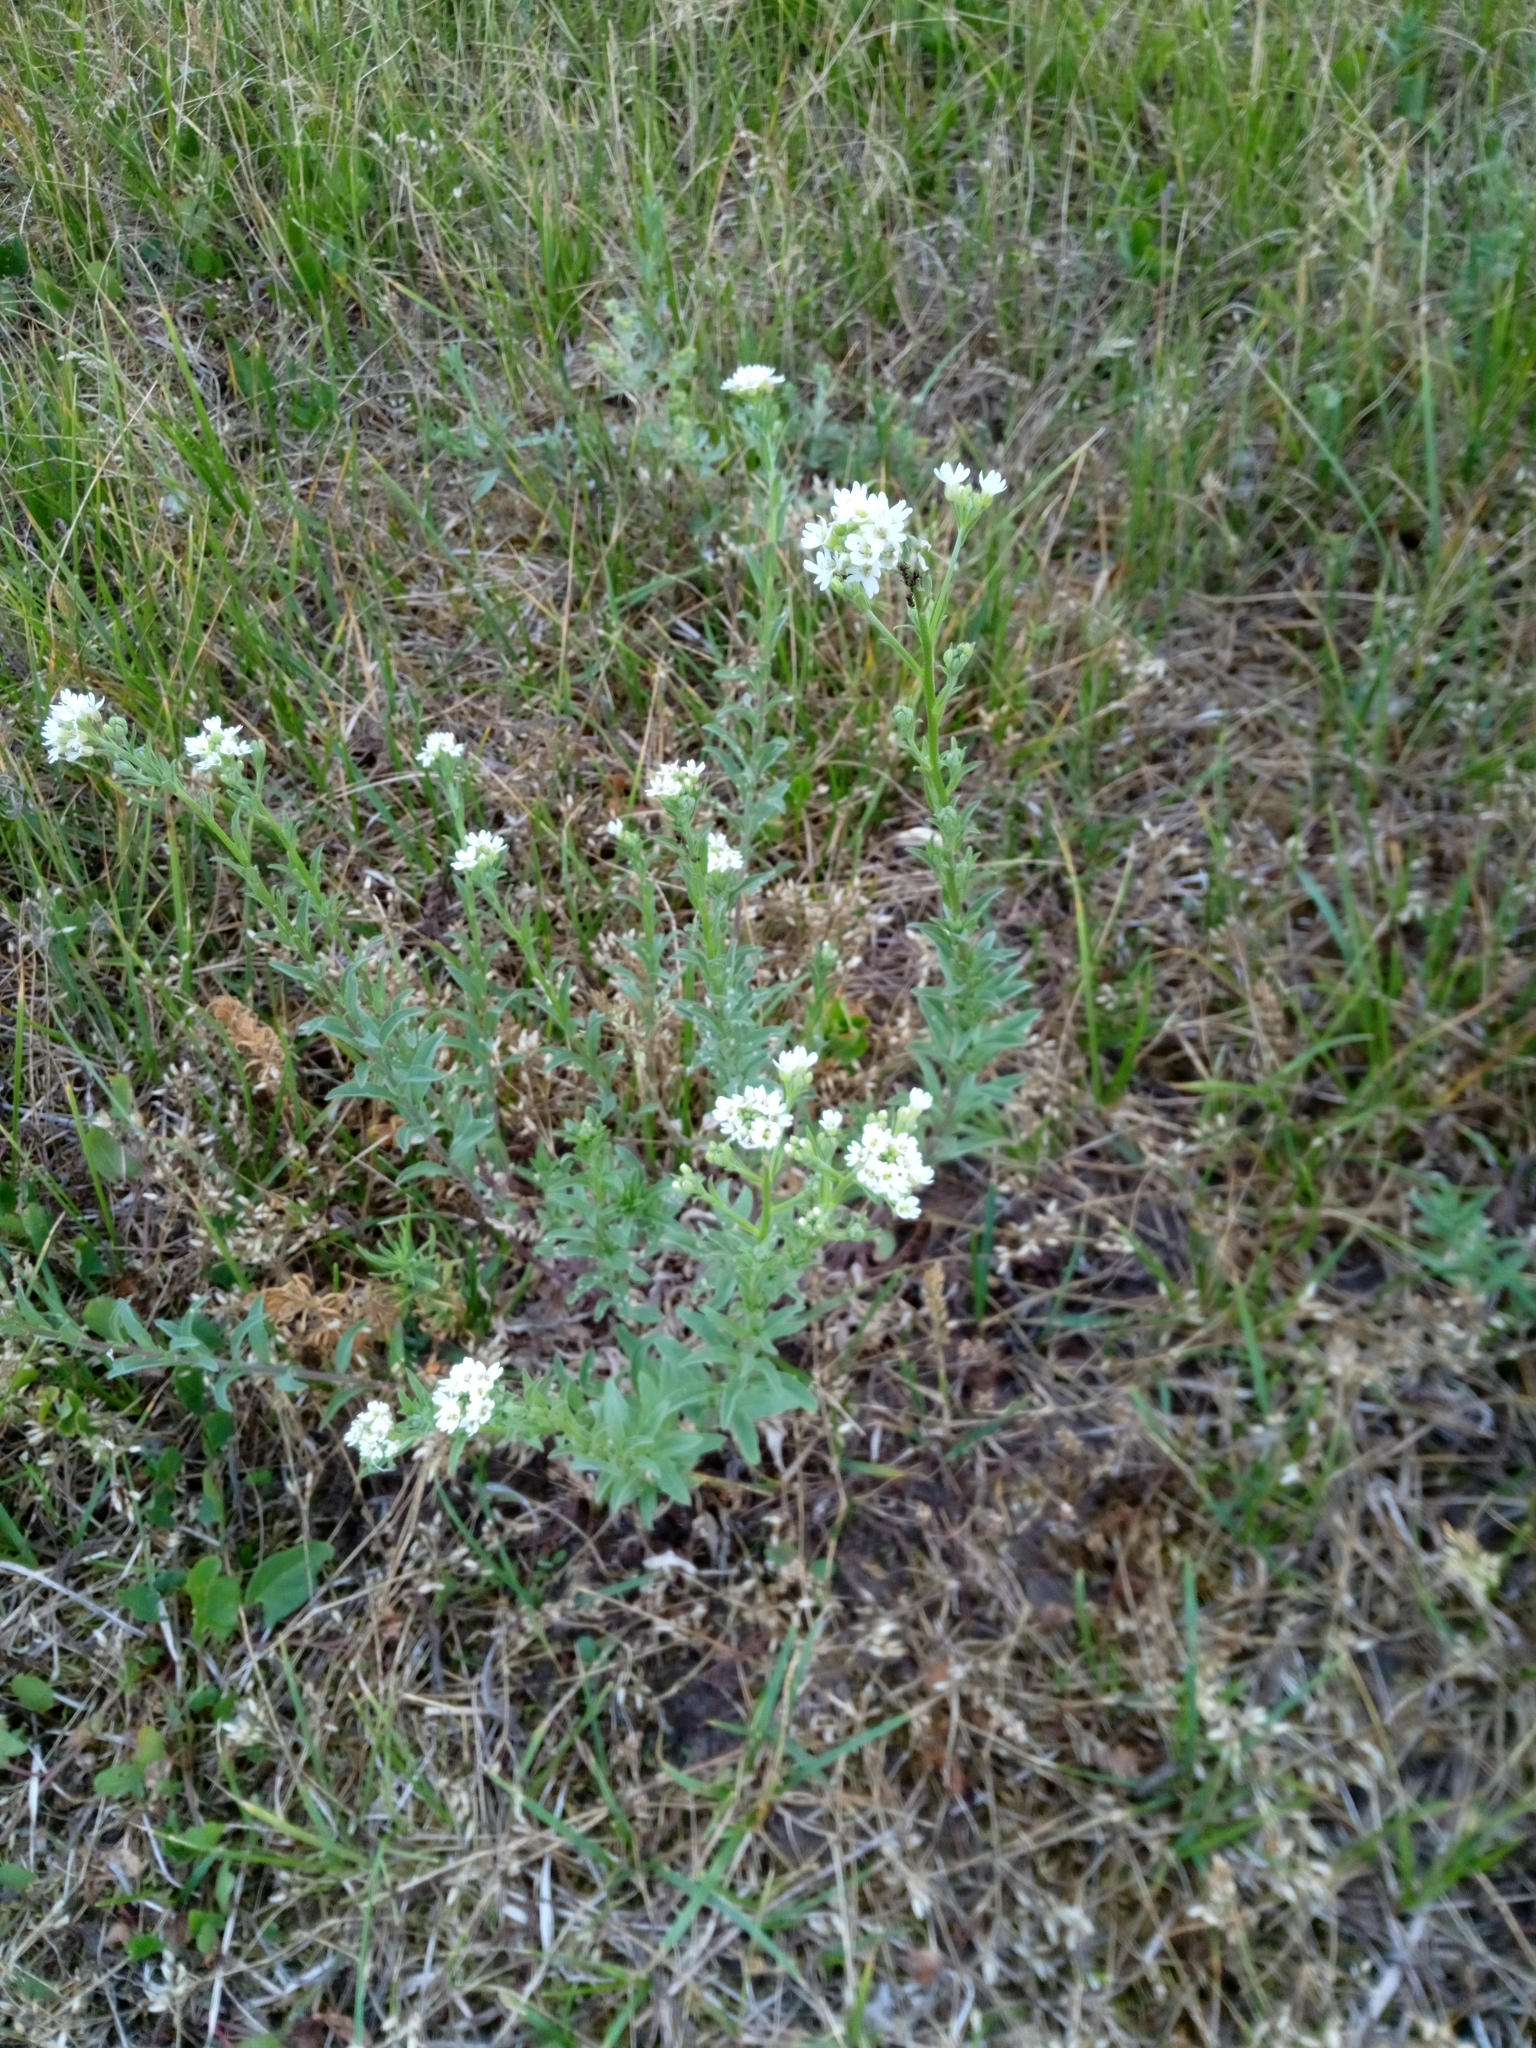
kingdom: Plantae
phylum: Tracheophyta
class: Magnoliopsida
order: Brassicales
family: Brassicaceae
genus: Berteroa
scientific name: Berteroa incana
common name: Hoary alison
